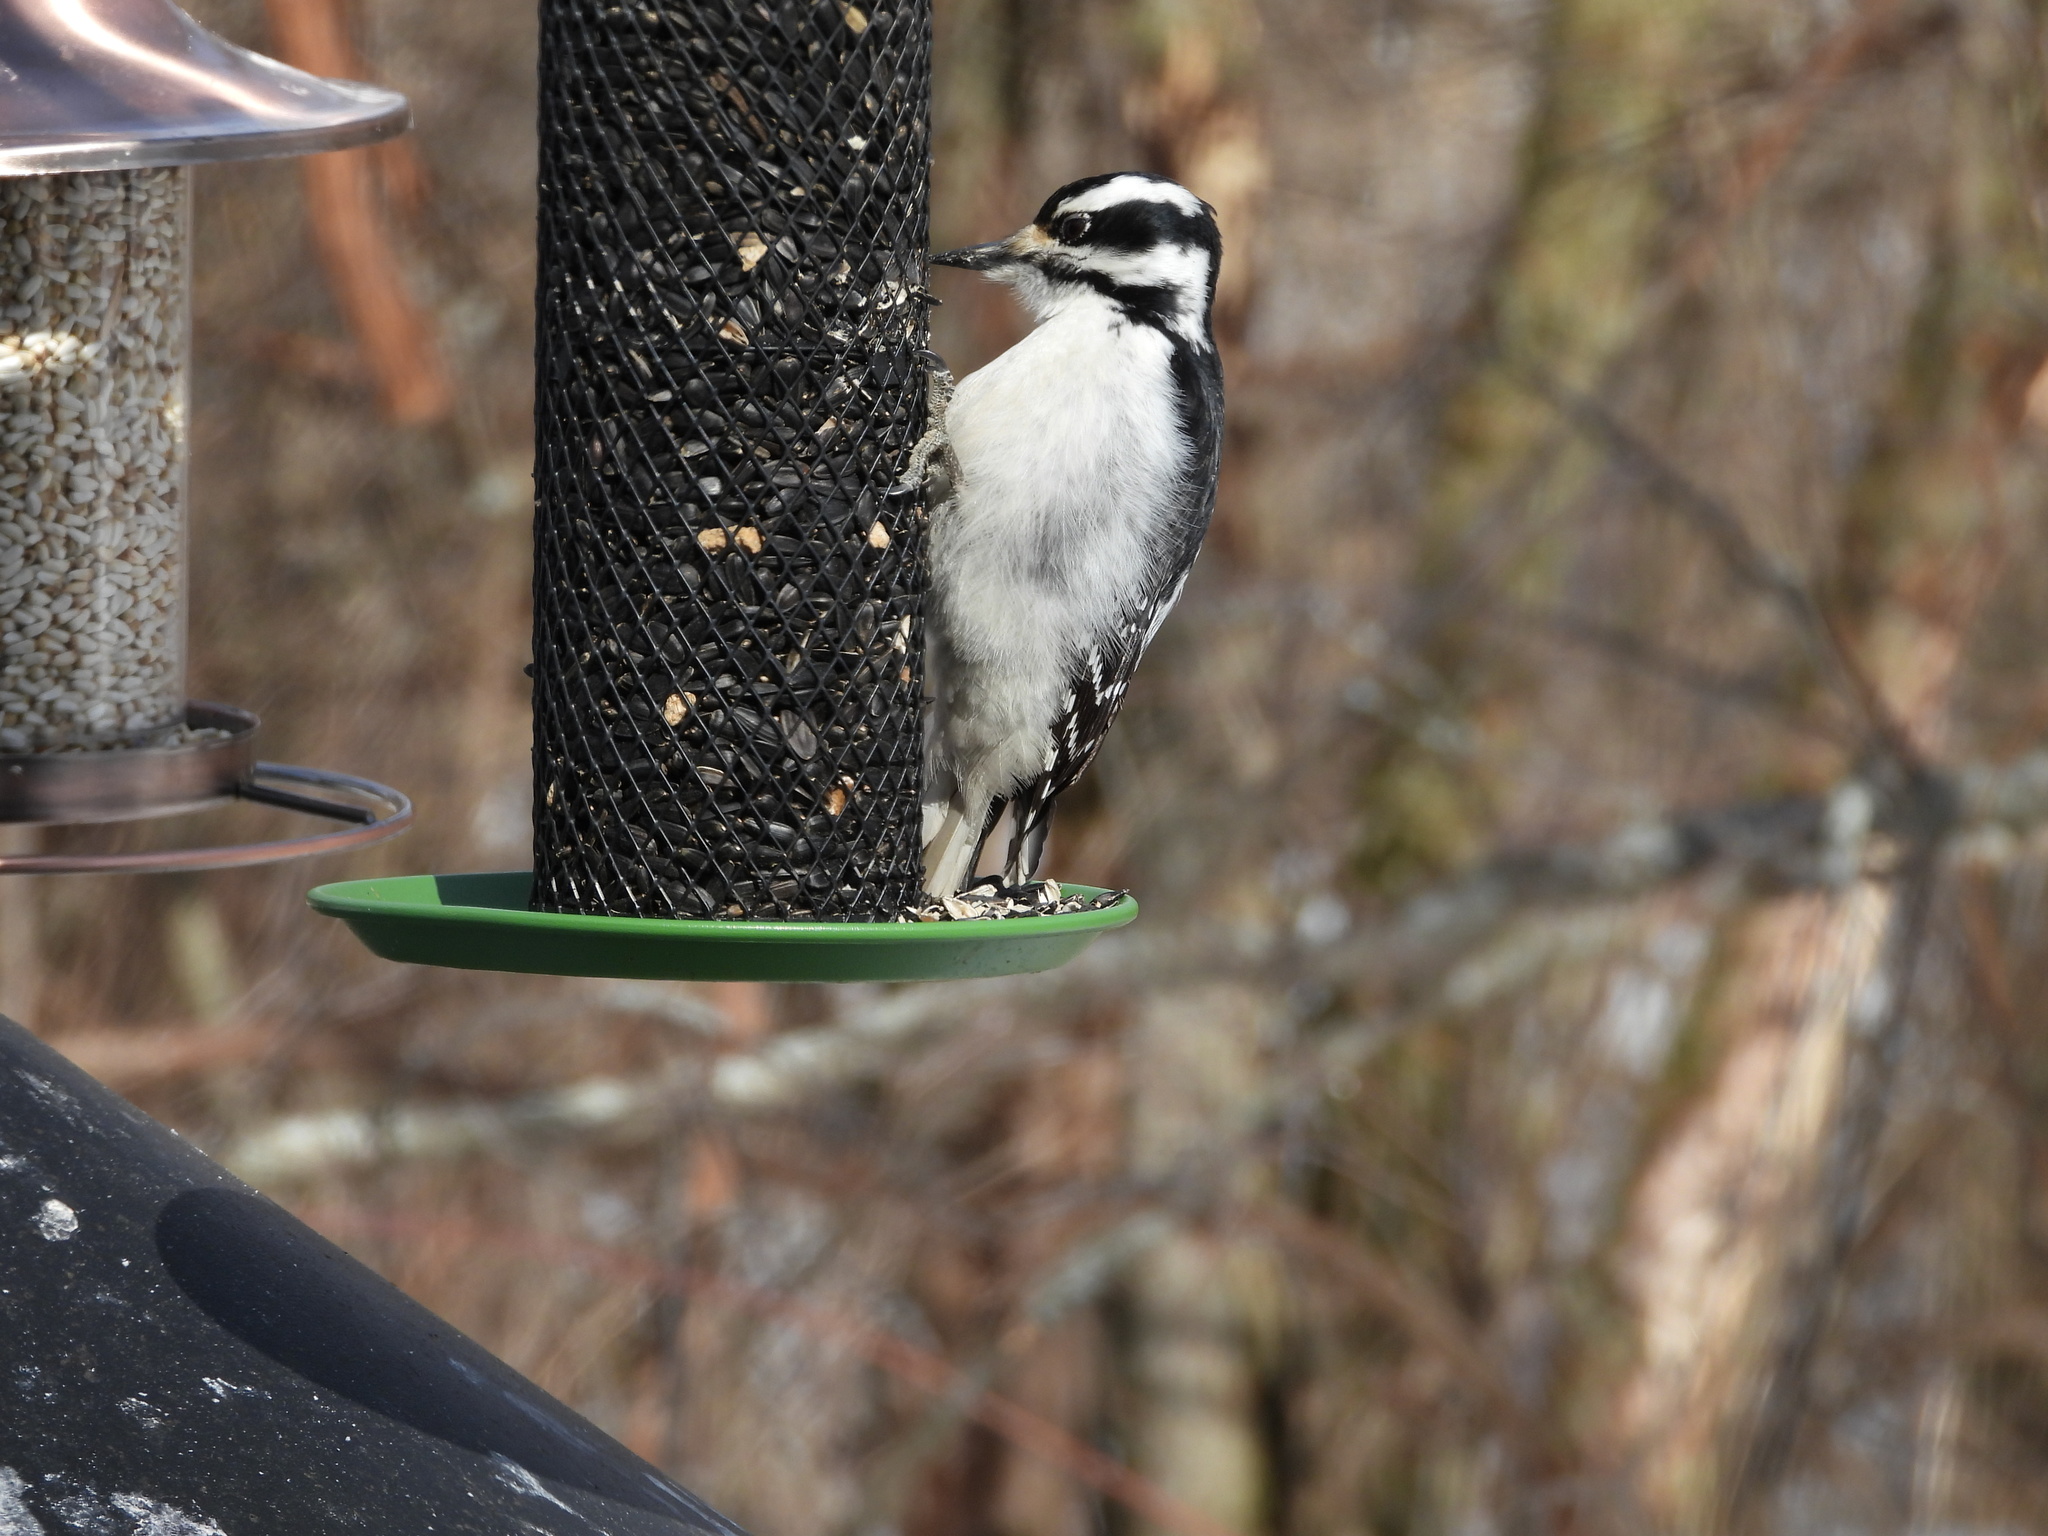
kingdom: Animalia
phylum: Chordata
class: Aves
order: Piciformes
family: Picidae
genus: Leuconotopicus
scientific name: Leuconotopicus villosus
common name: Hairy woodpecker
